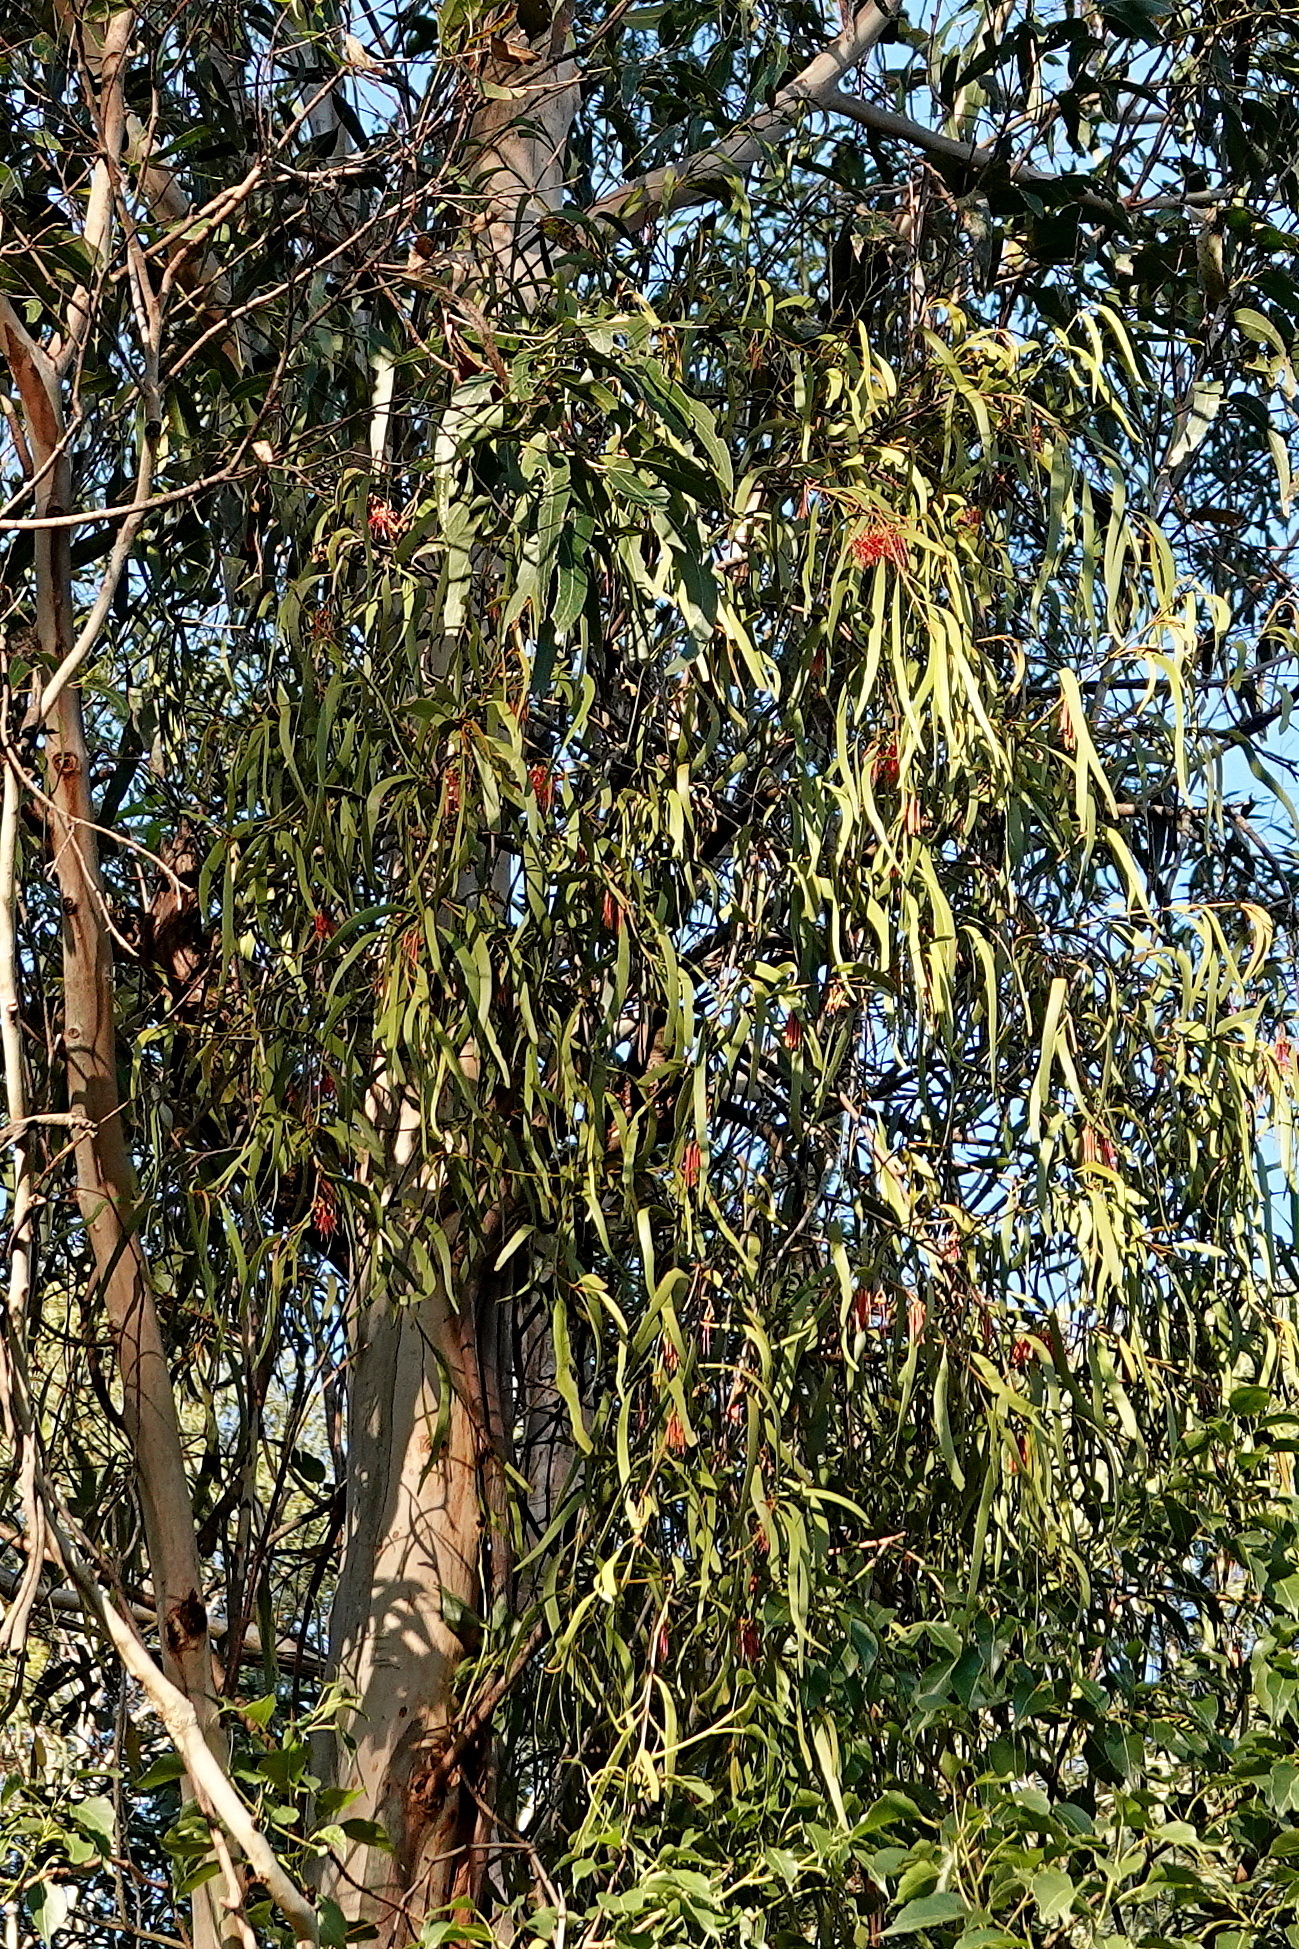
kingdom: Plantae
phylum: Tracheophyta
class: Magnoliopsida
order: Santalales
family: Loranthaceae
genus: Amyema
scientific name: Amyema pendula
